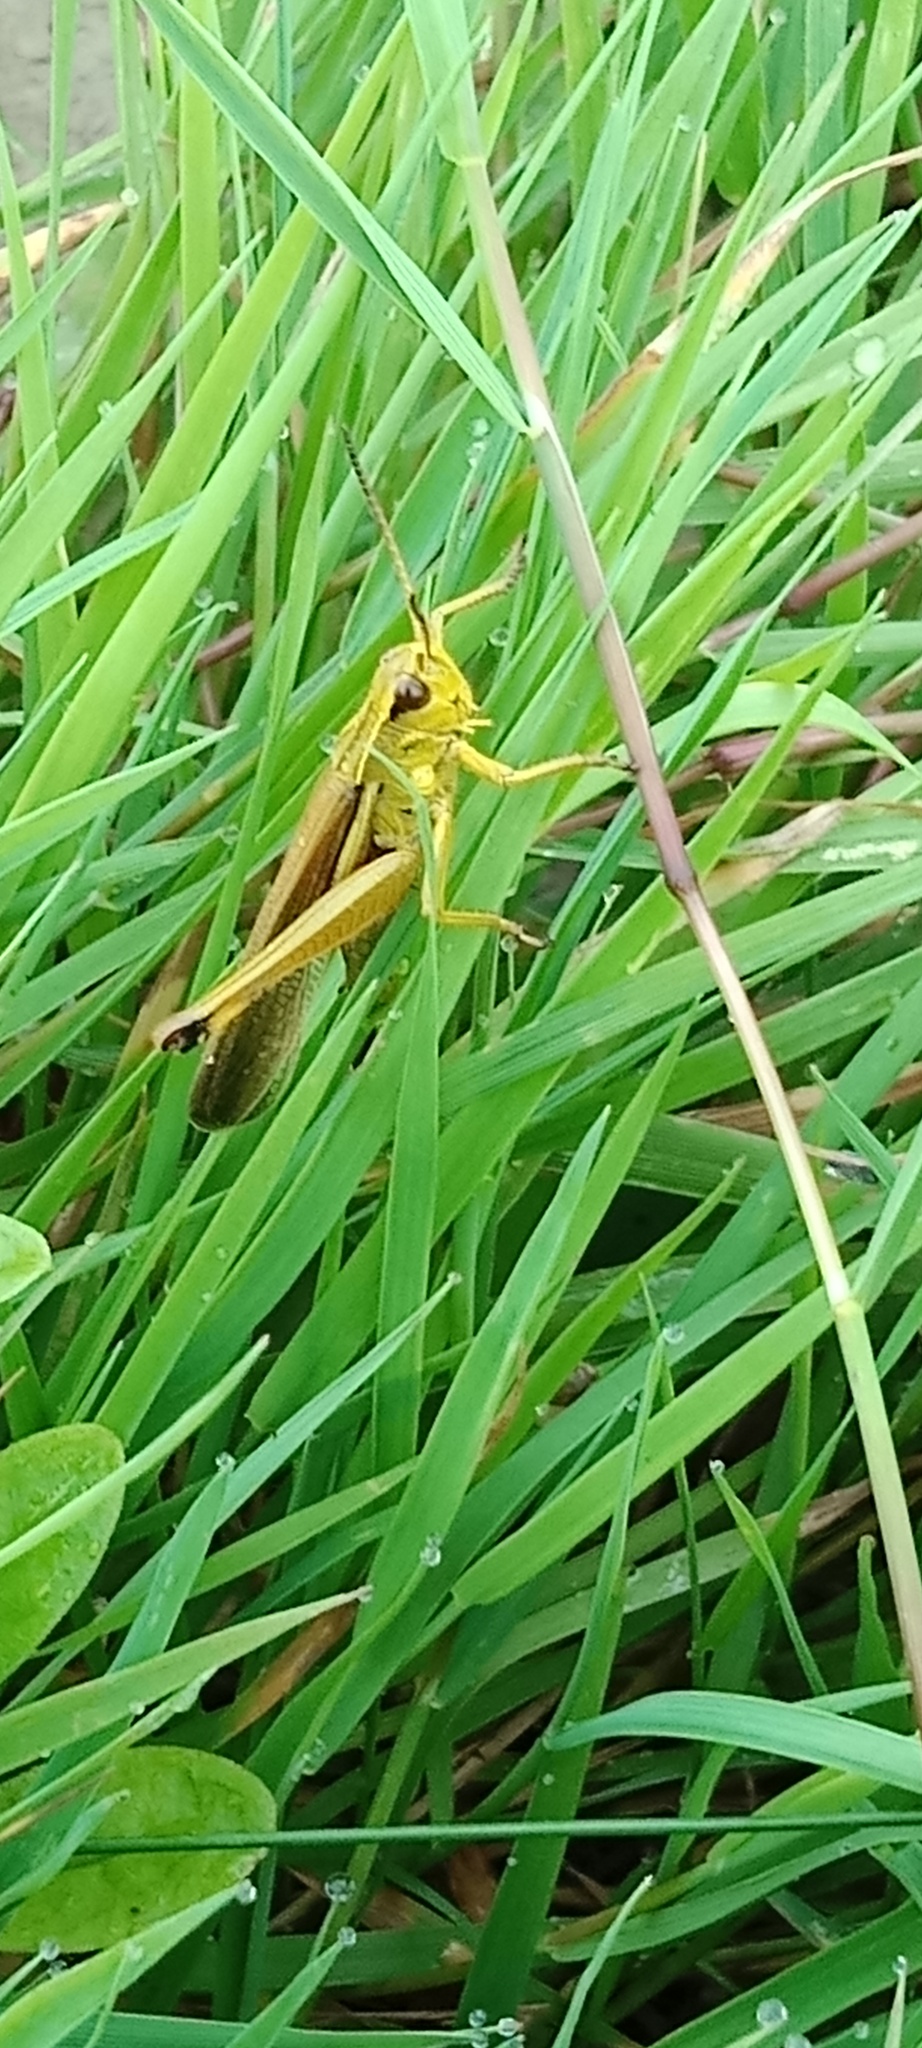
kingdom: Animalia
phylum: Arthropoda
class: Insecta
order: Orthoptera
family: Acrididae
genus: Stethophyma
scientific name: Stethophyma grossum
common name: Large marsh grasshopper
